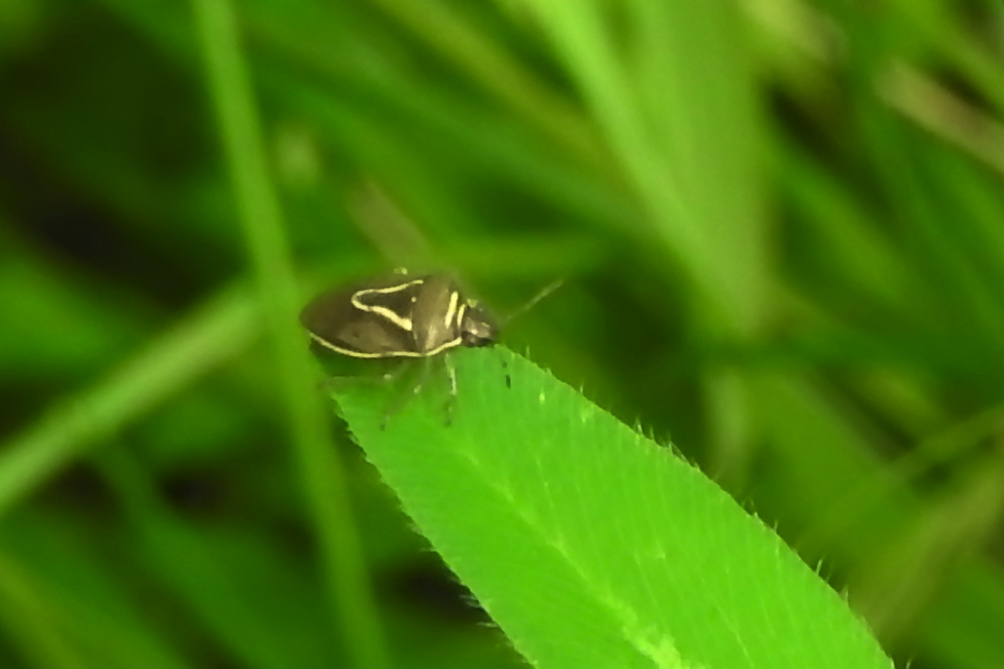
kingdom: Animalia
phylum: Arthropoda
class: Insecta
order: Hemiptera
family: Pentatomidae
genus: Mormidea
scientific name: Mormidea lugens
